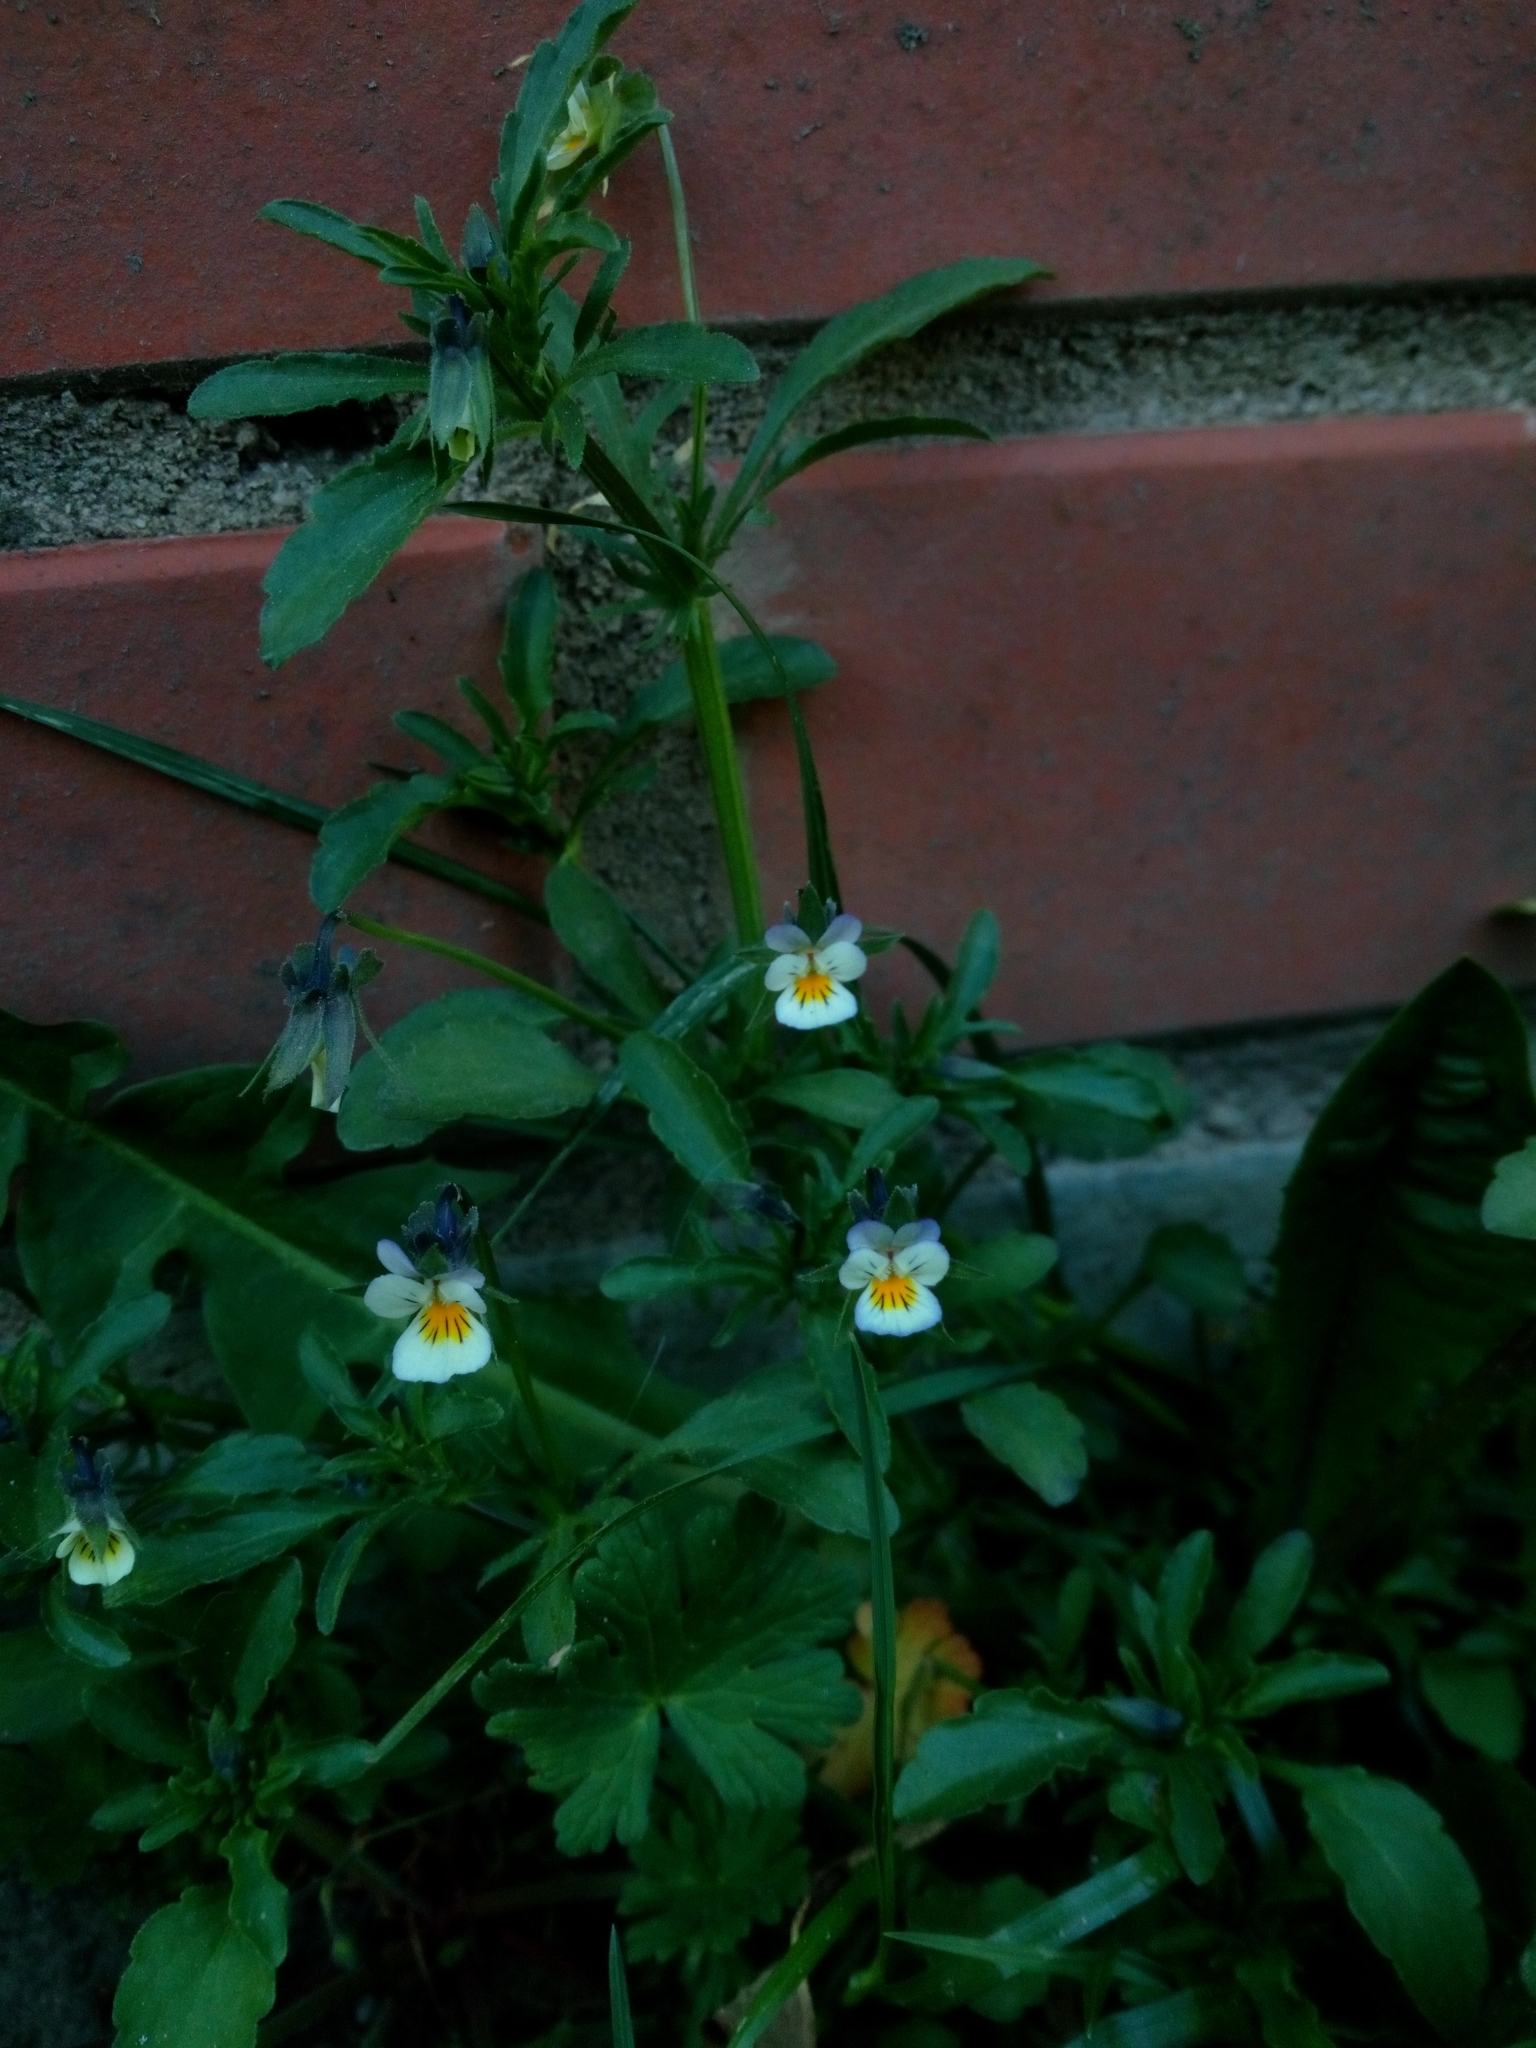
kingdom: Plantae
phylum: Tracheophyta
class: Magnoliopsida
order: Malpighiales
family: Violaceae
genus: Viola
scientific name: Viola arvensis
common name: Field pansy
